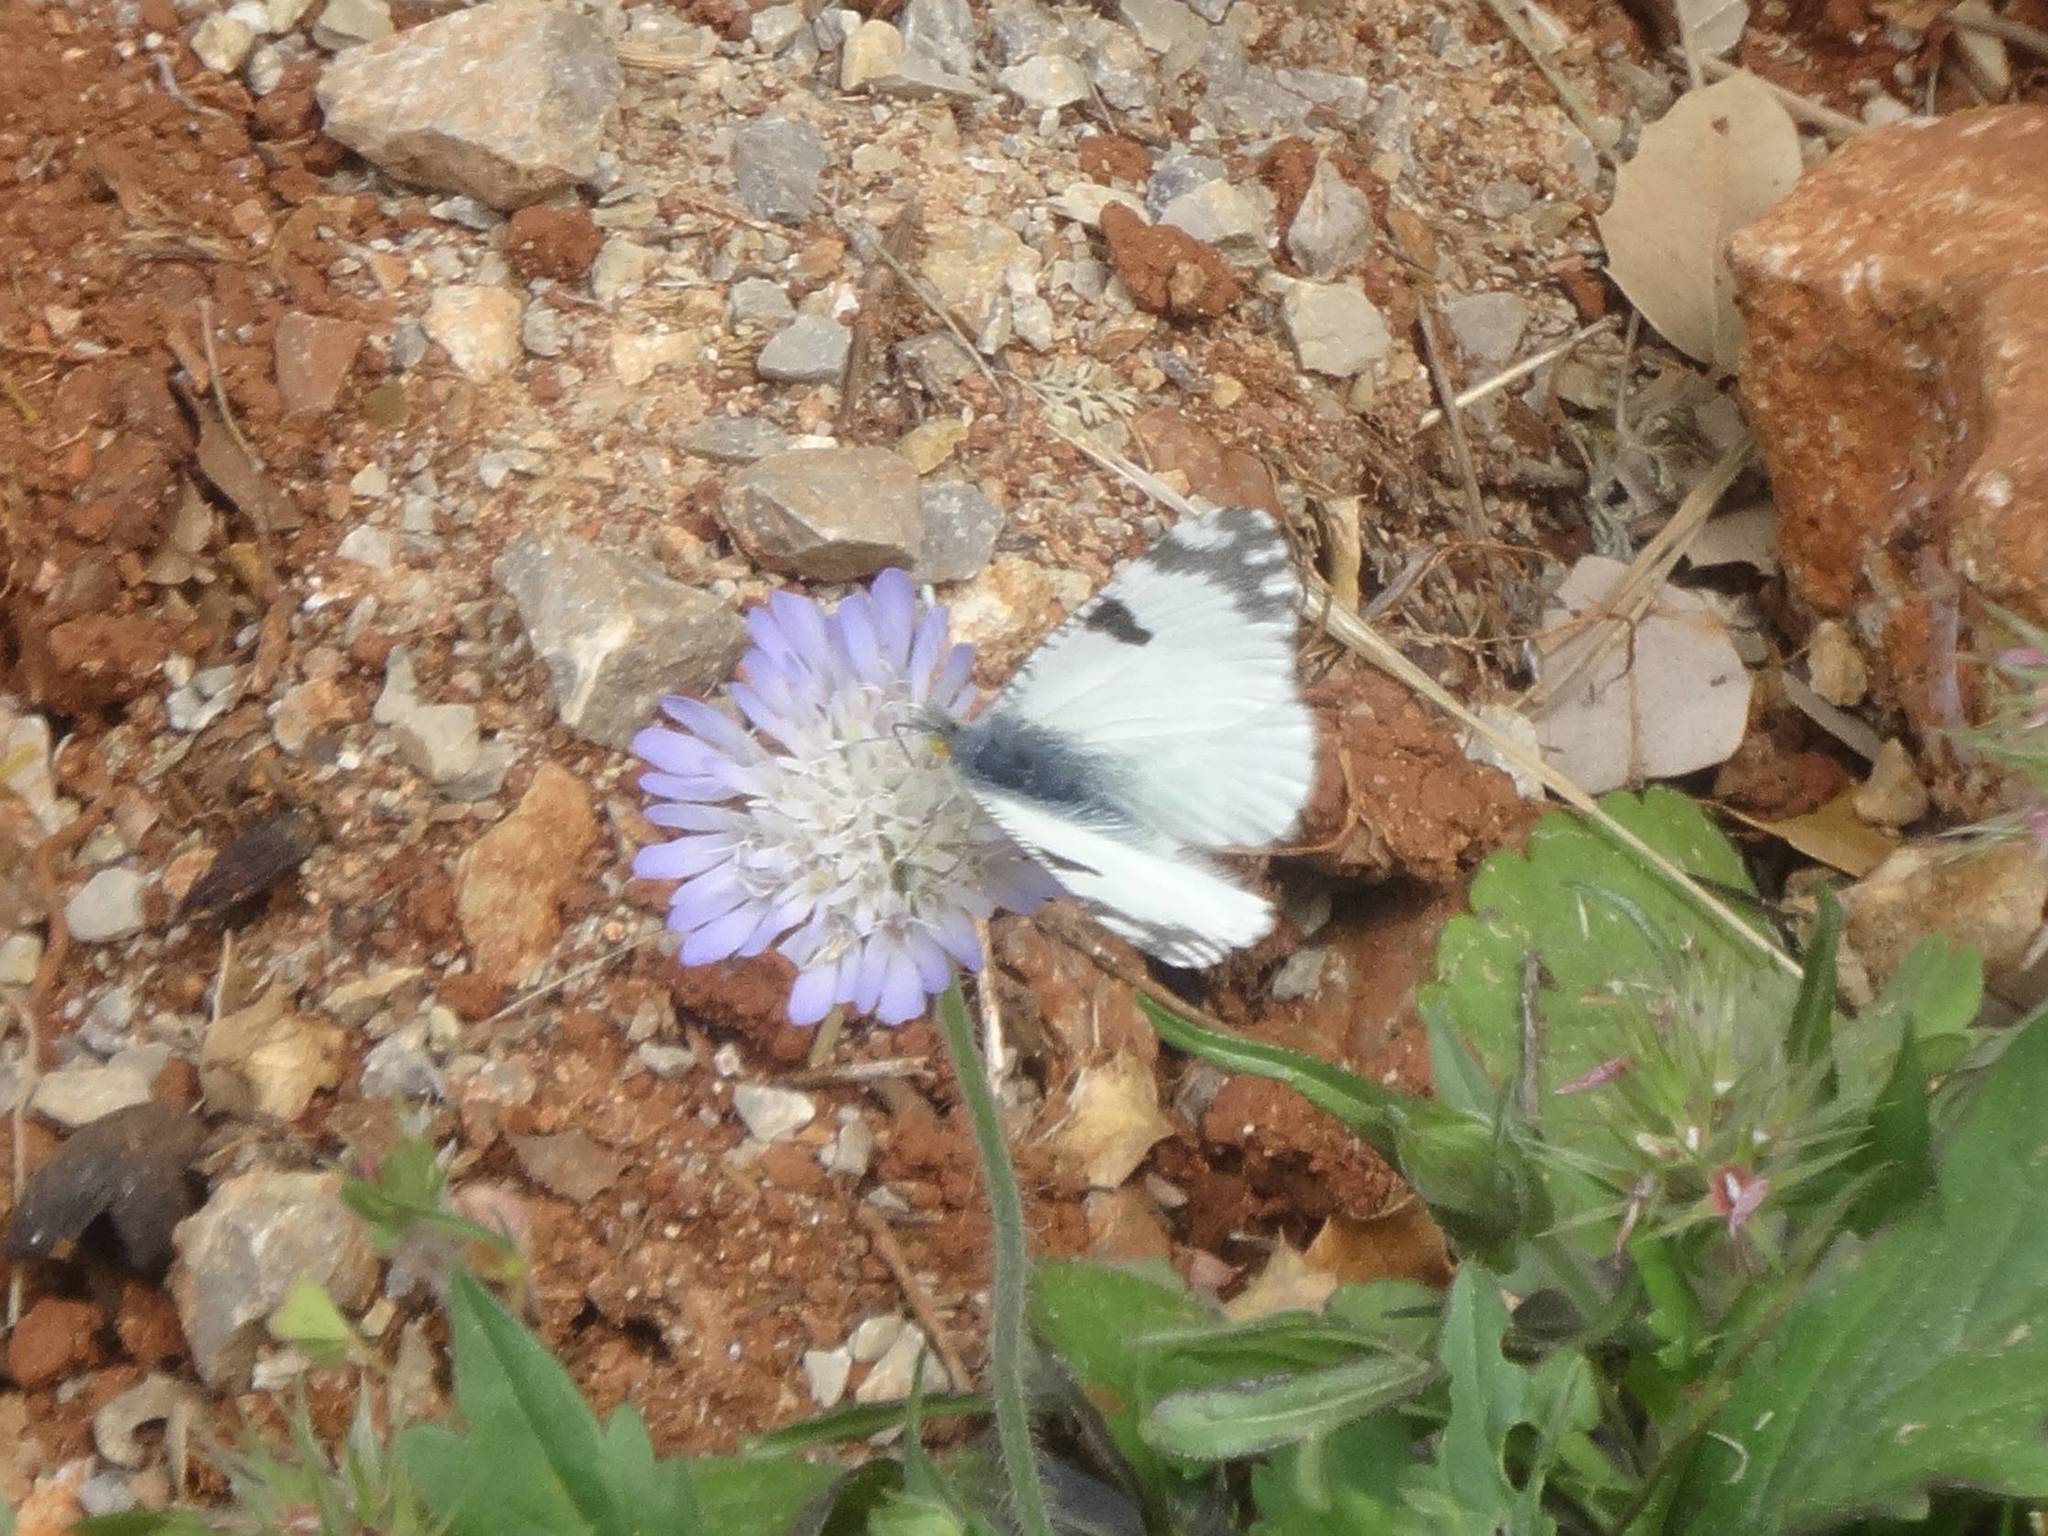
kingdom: Animalia
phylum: Arthropoda
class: Insecta
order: Lepidoptera
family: Pieridae
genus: Euchloe
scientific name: Euchloe ausonia
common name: Eastern dappled white
